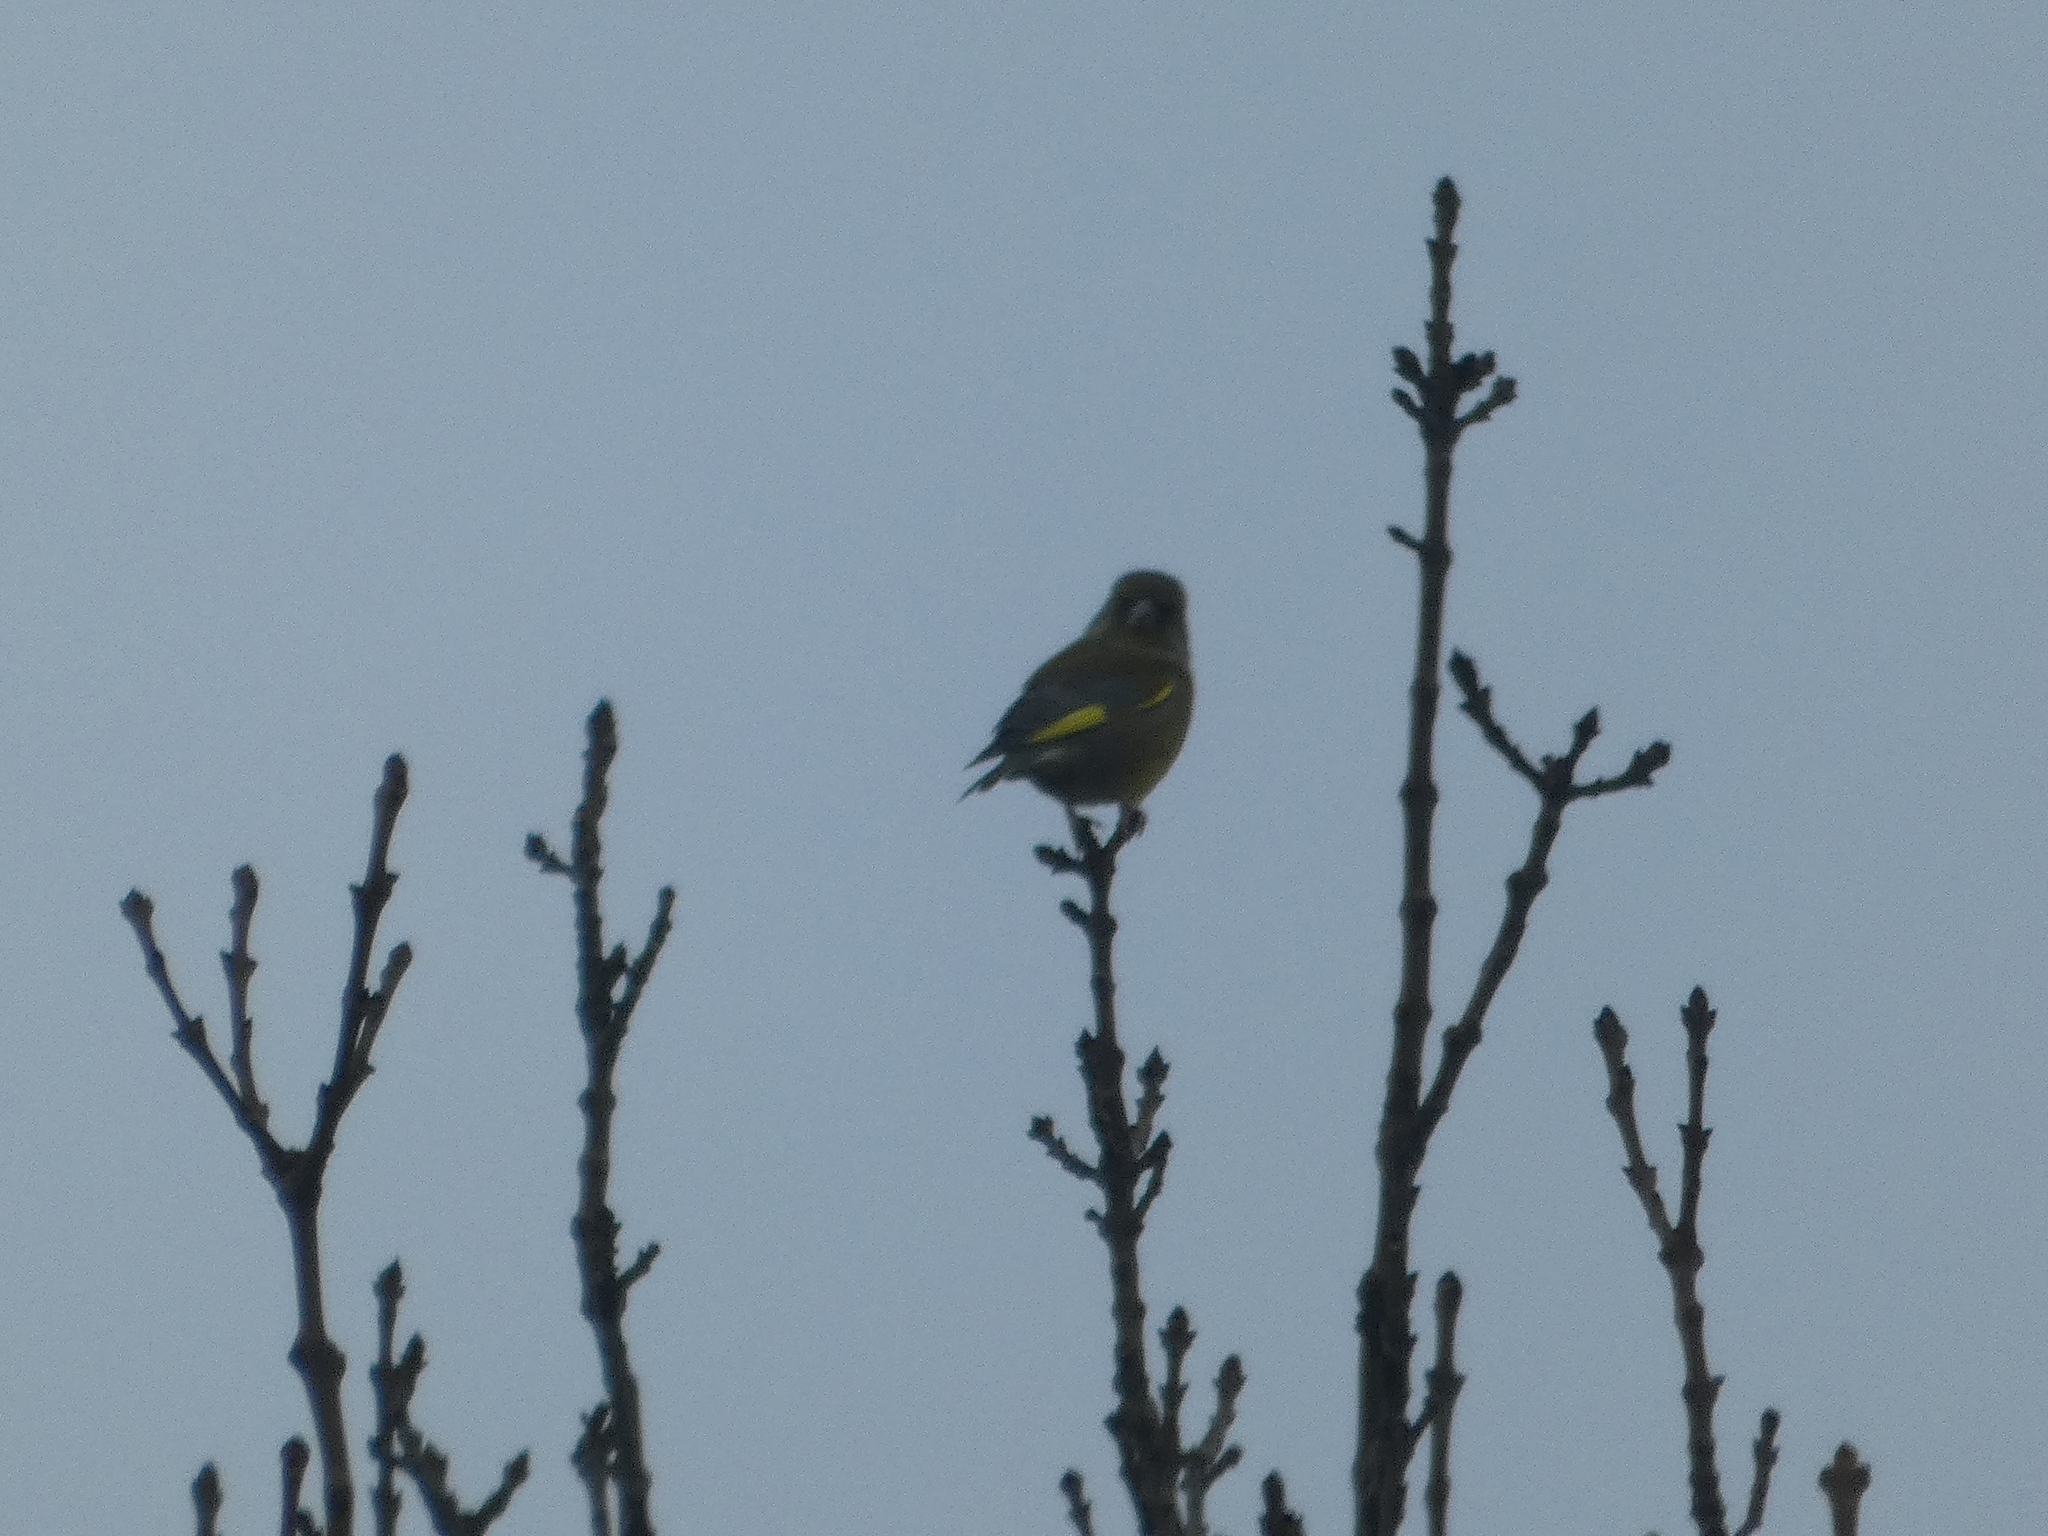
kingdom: Plantae
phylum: Tracheophyta
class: Liliopsida
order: Poales
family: Poaceae
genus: Chloris
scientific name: Chloris chloris
